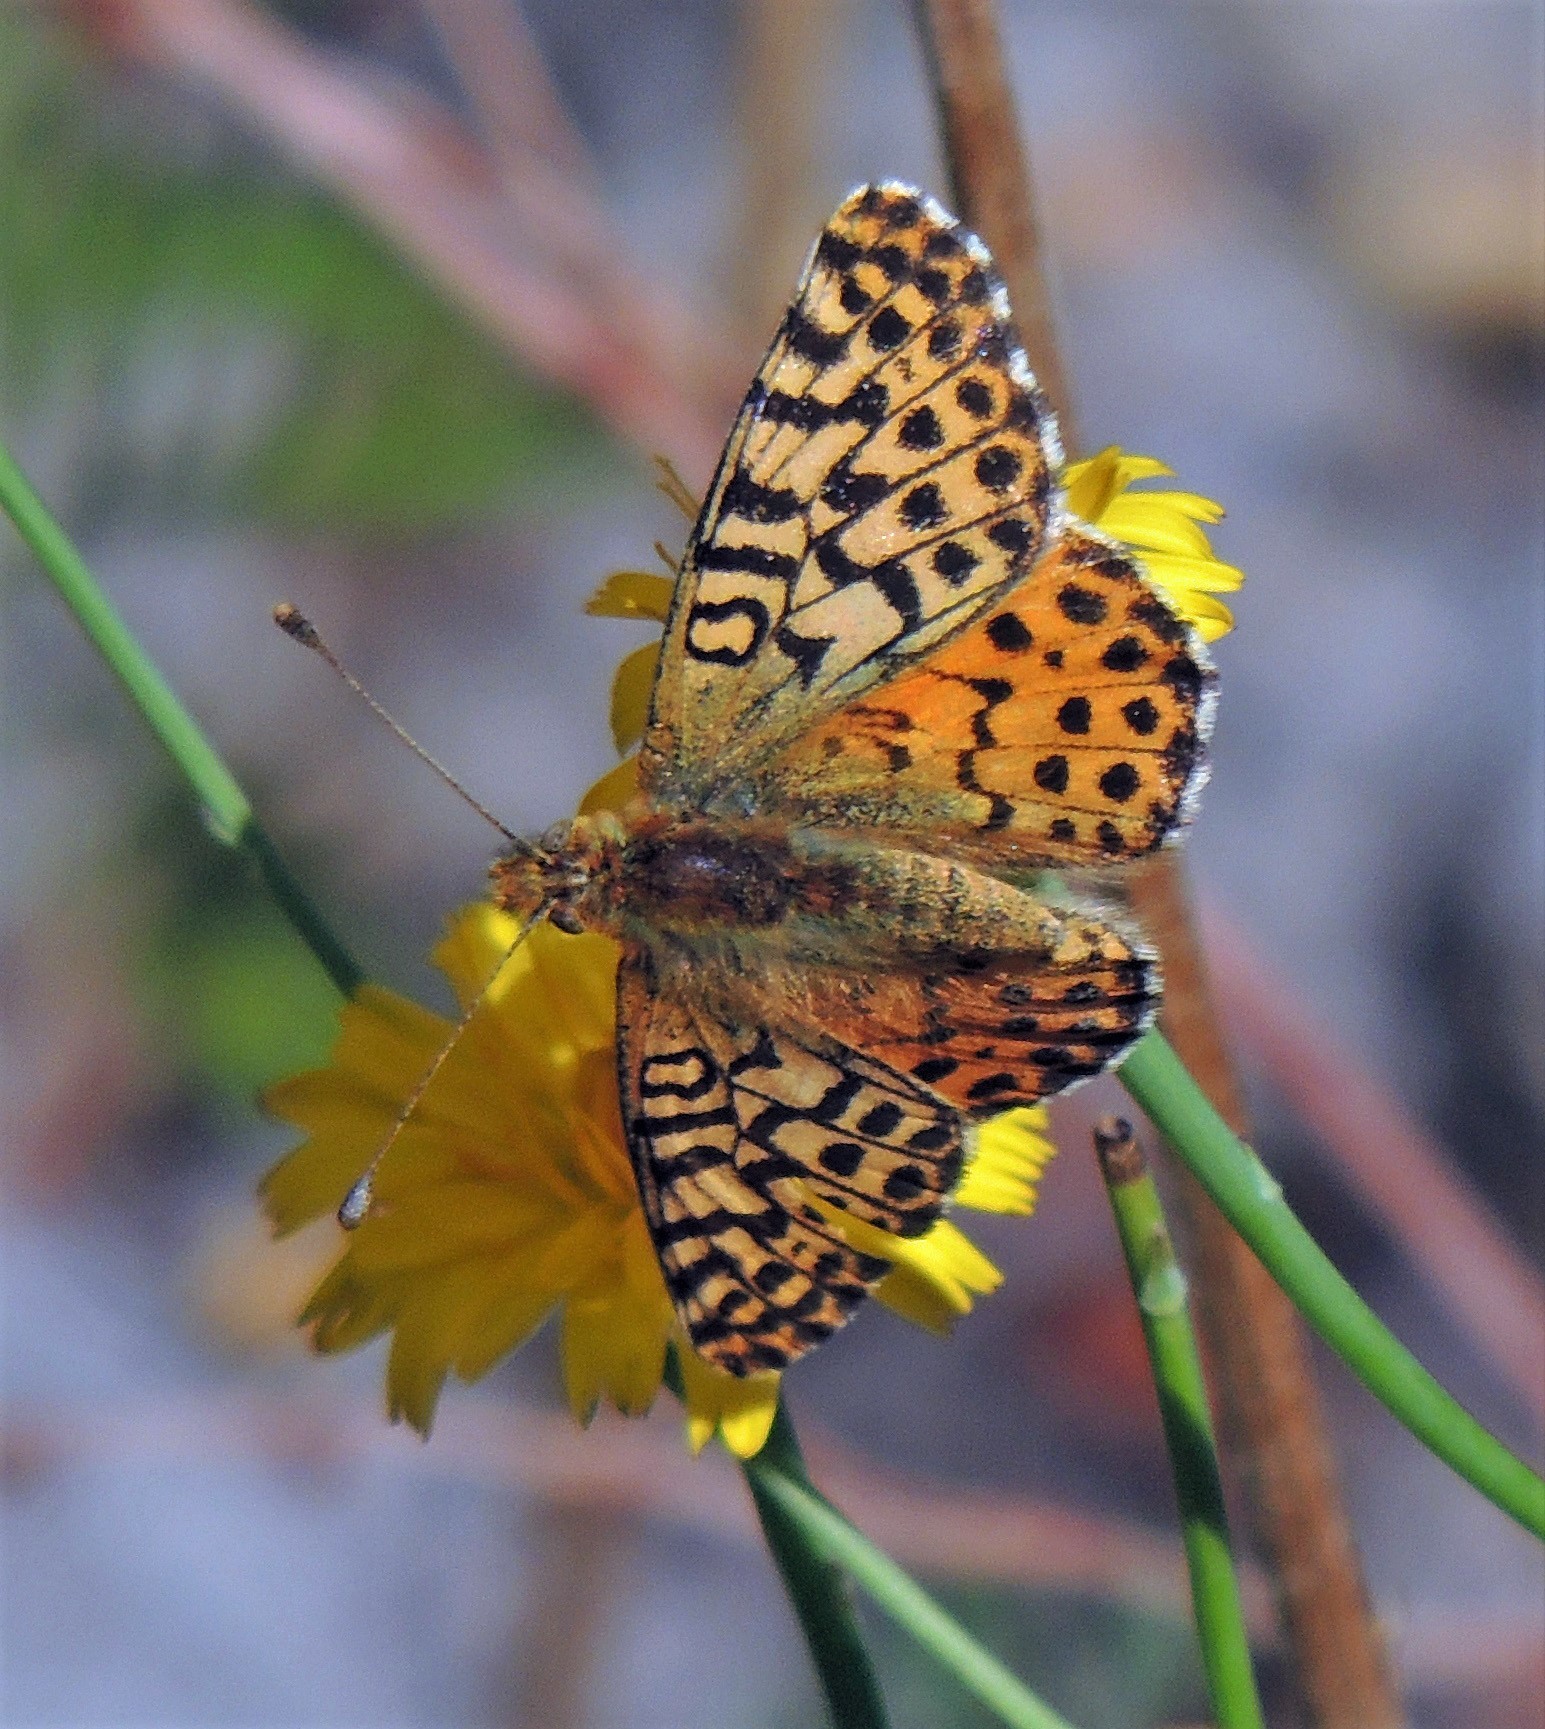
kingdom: Animalia
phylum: Arthropoda
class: Insecta
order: Lepidoptera
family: Nymphalidae
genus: Issoria
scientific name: Issoria Yramea lathonoides
